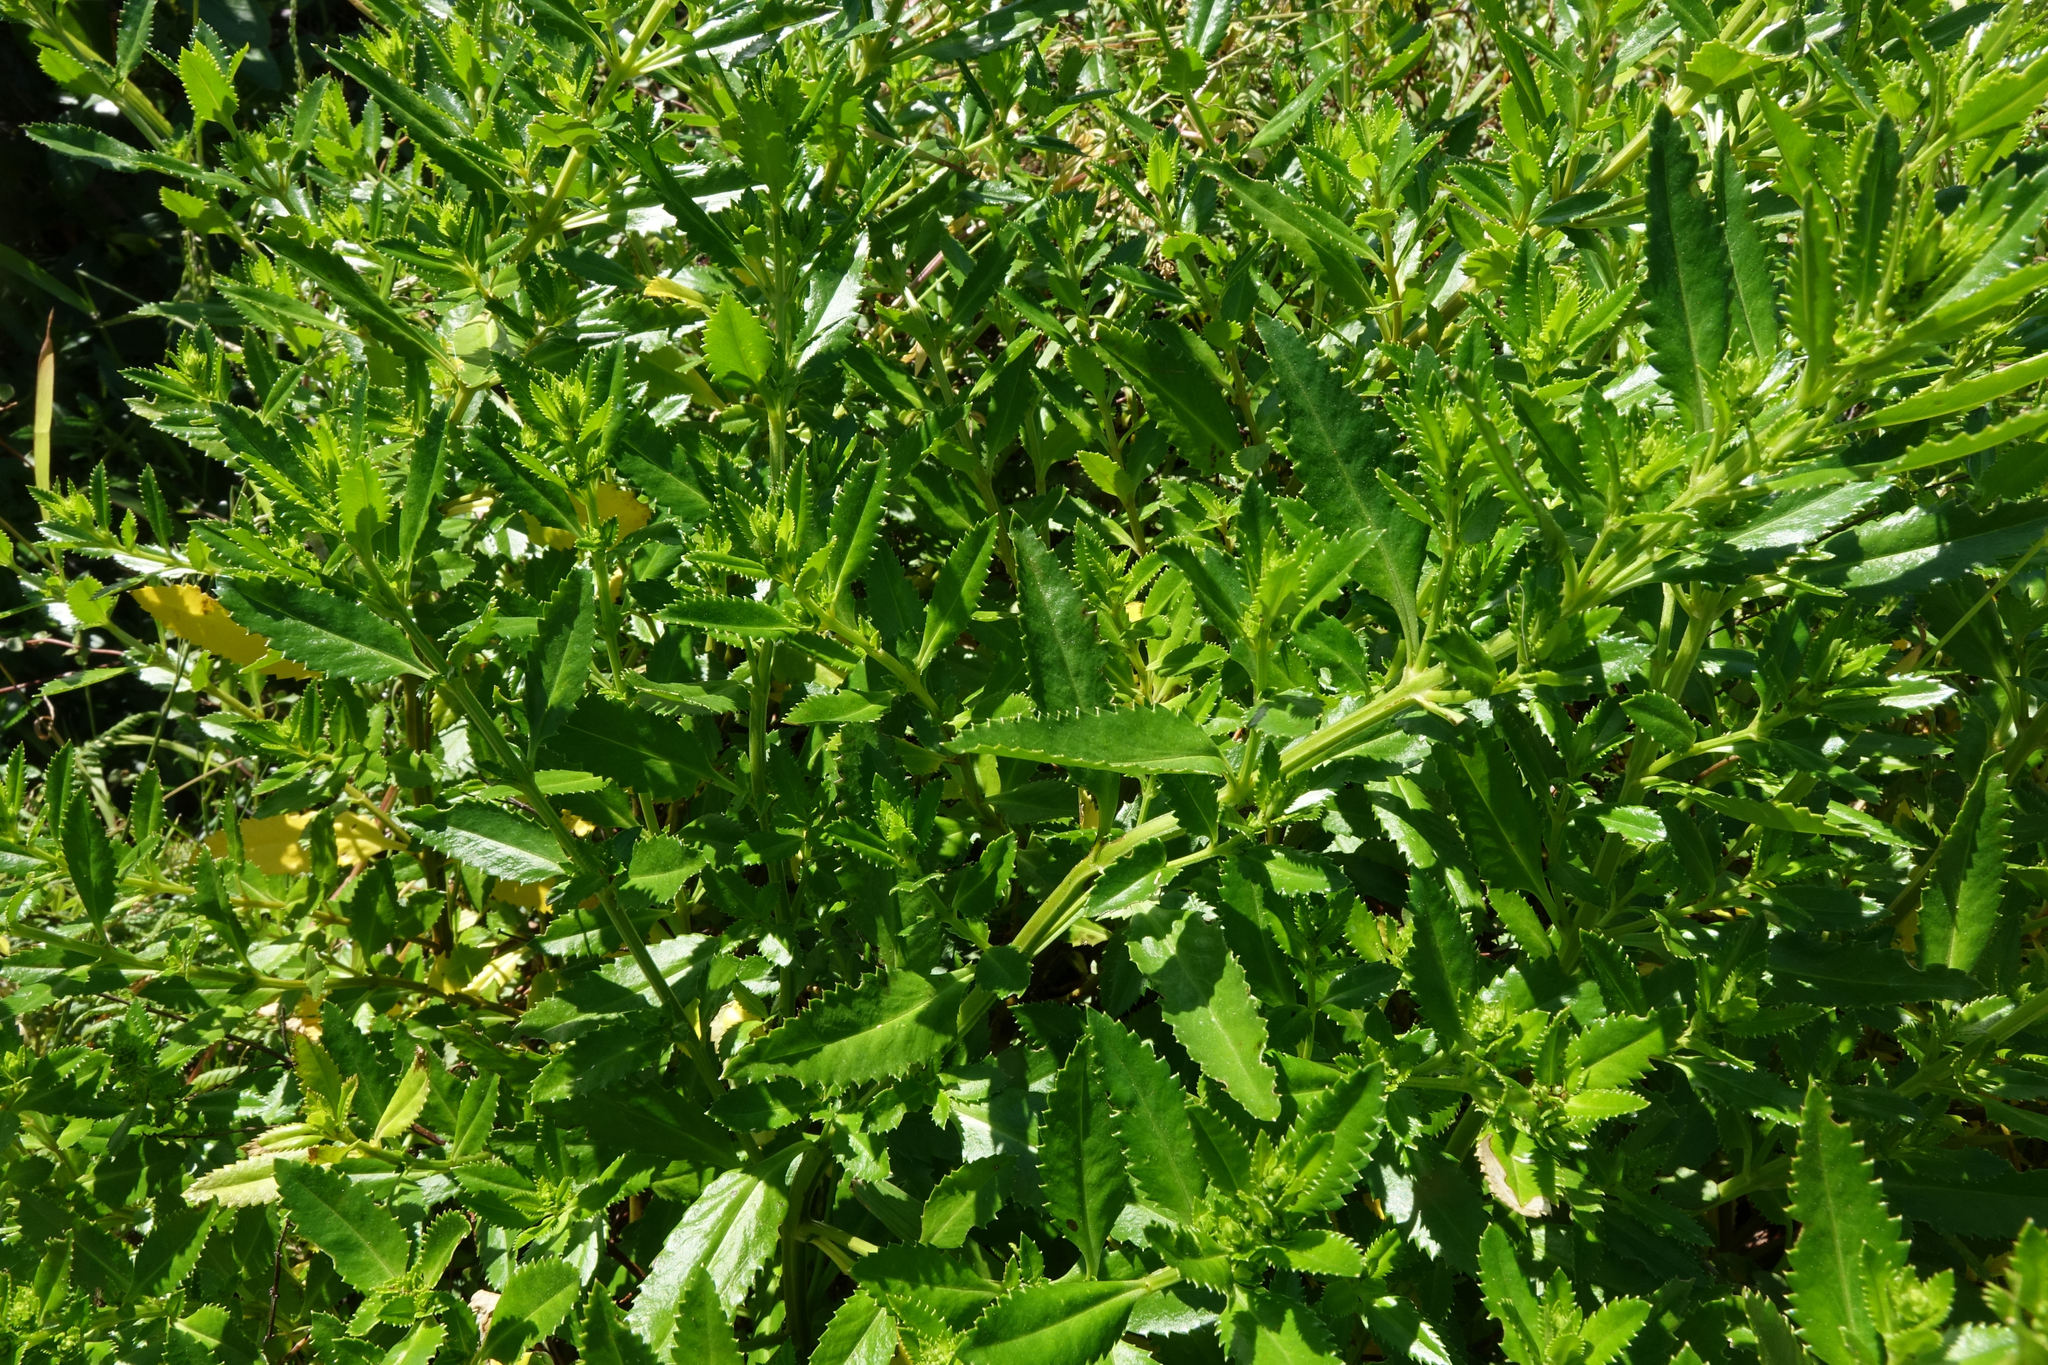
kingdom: Plantae
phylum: Tracheophyta
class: Magnoliopsida
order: Saxifragales
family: Haloragaceae
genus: Haloragis
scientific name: Haloragis erecta
